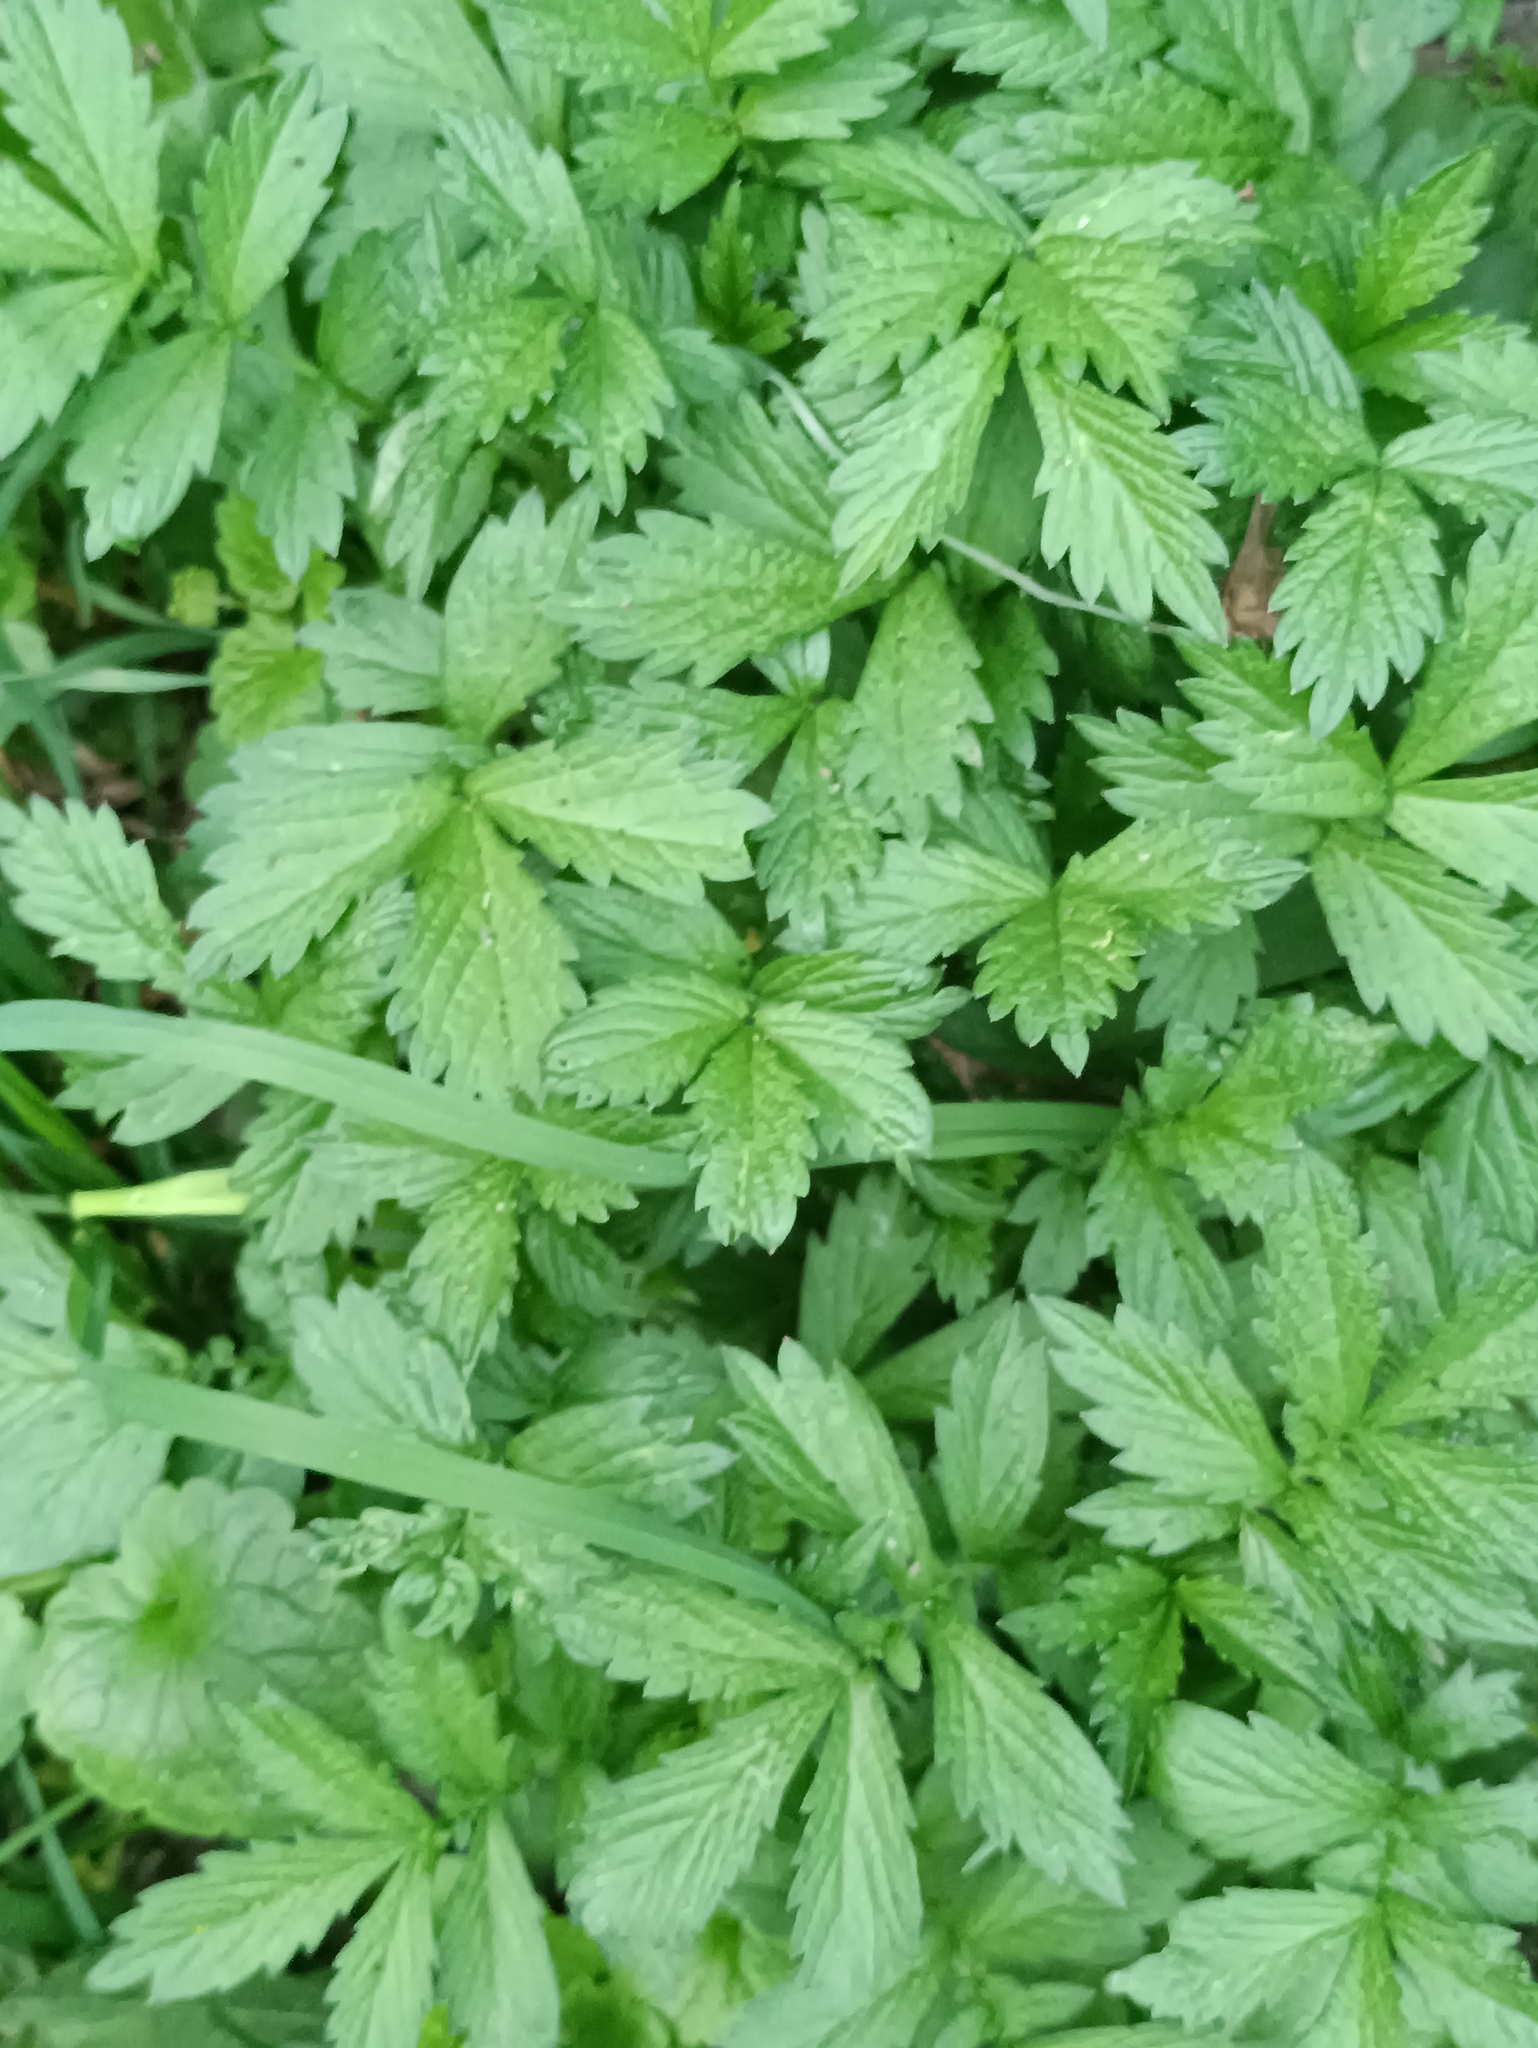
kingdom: Plantae
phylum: Tracheophyta
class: Magnoliopsida
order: Rosales
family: Rosaceae
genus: Agrimonia
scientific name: Agrimonia pilosa
